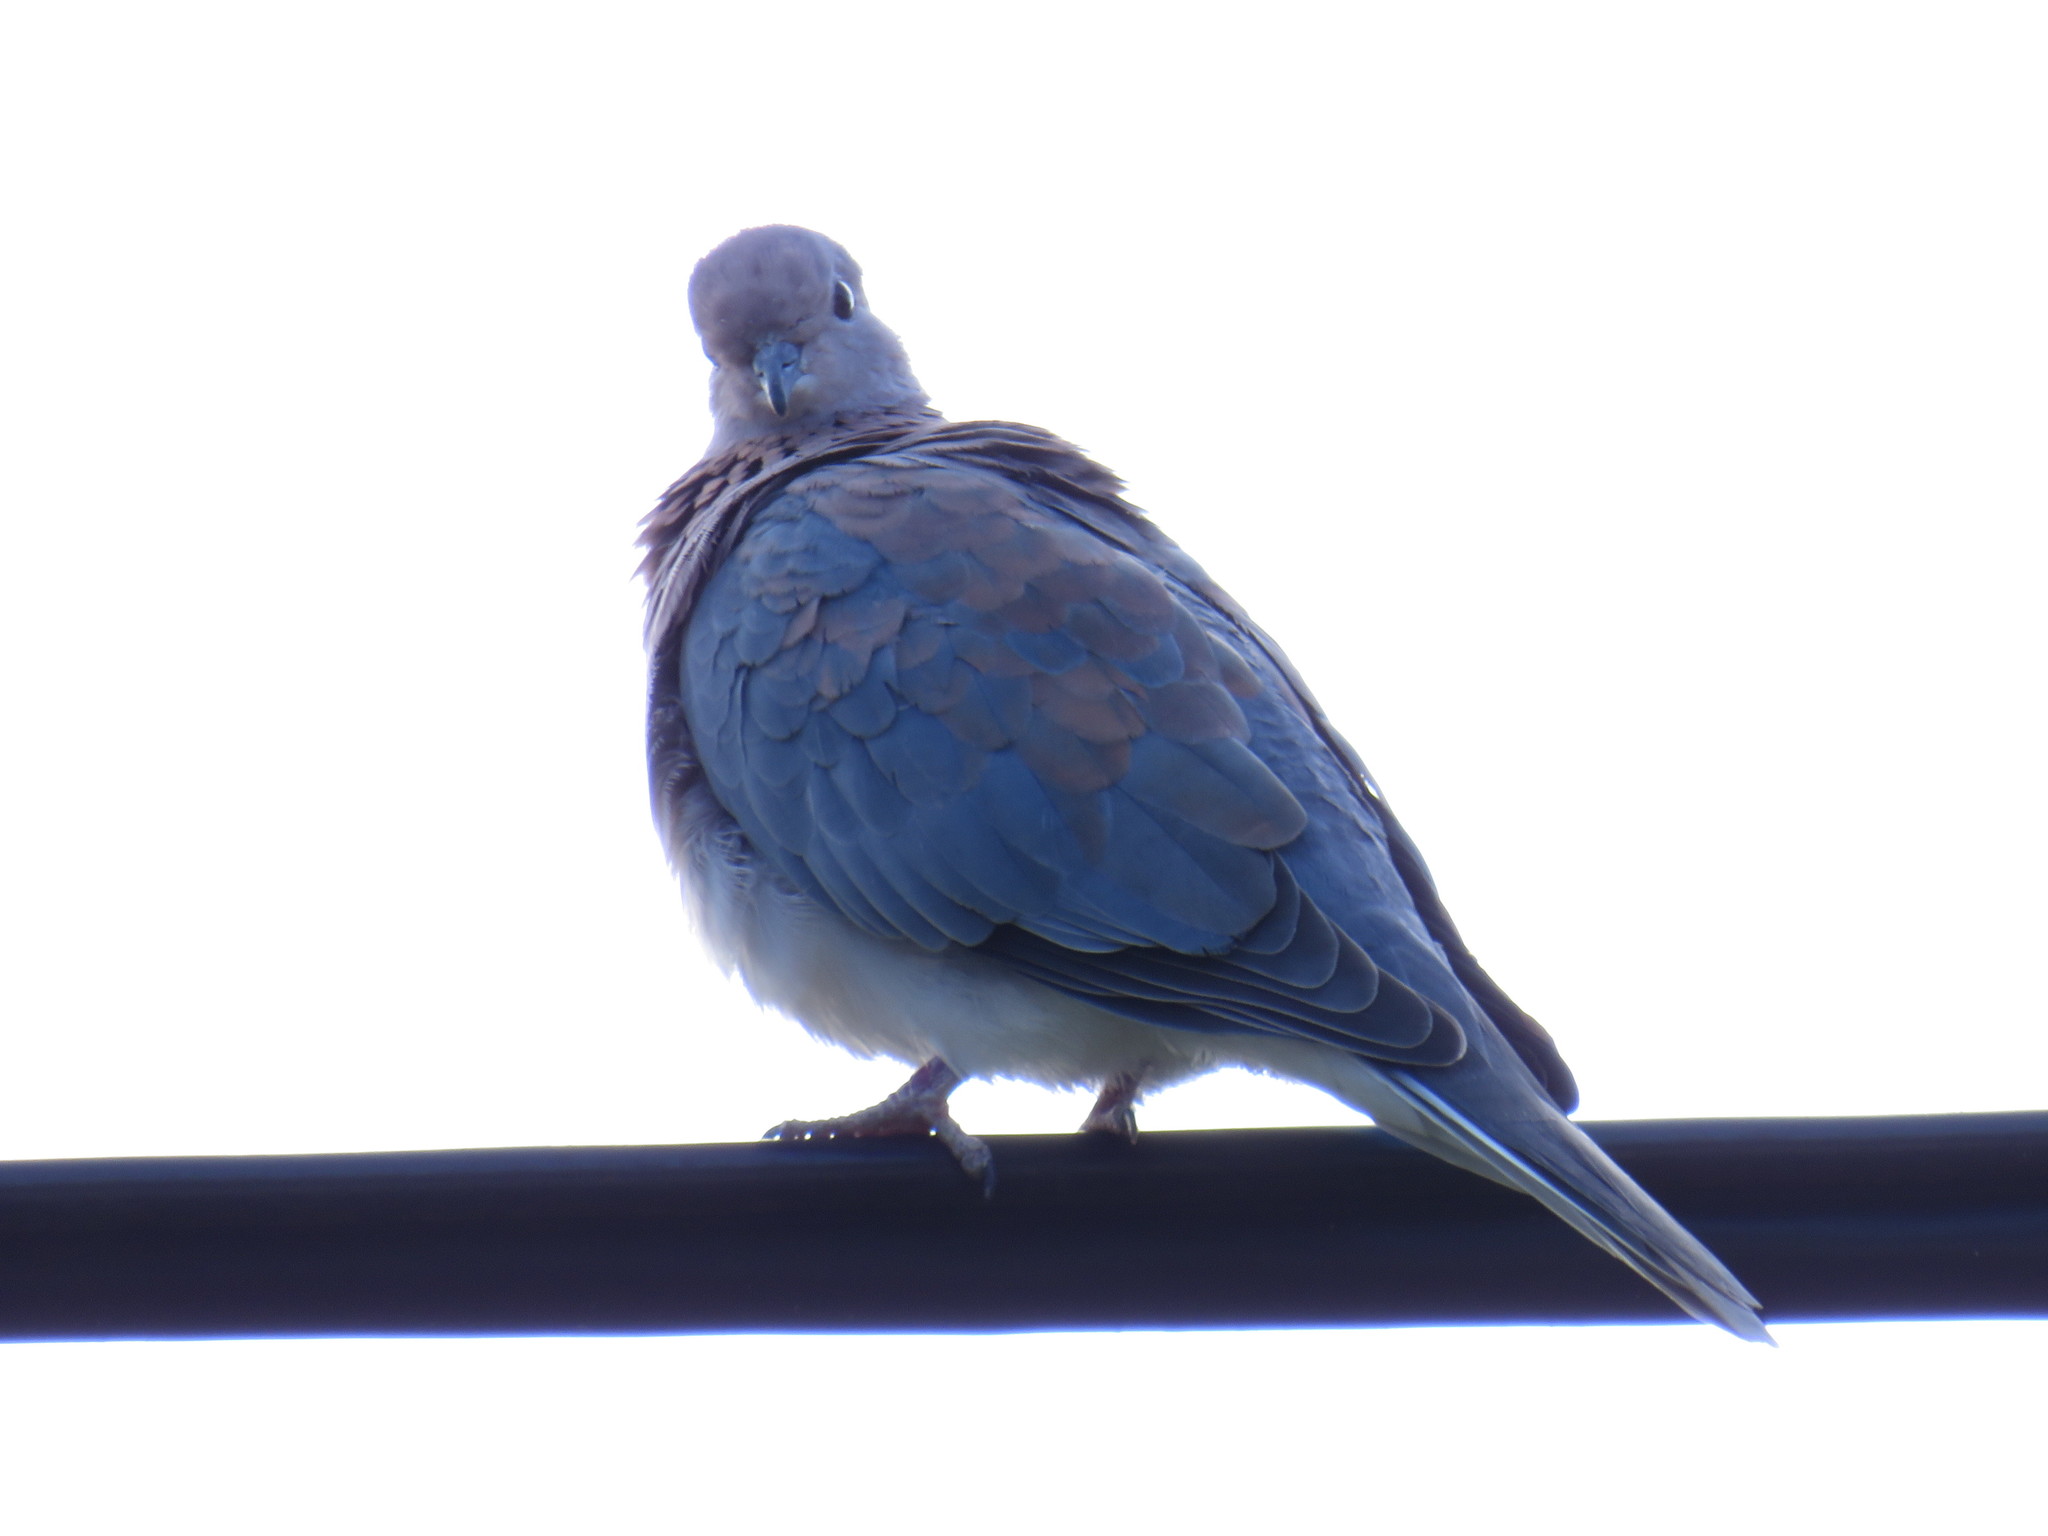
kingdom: Animalia
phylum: Chordata
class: Aves
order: Columbiformes
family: Columbidae
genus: Spilopelia
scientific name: Spilopelia senegalensis
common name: Laughing dove
